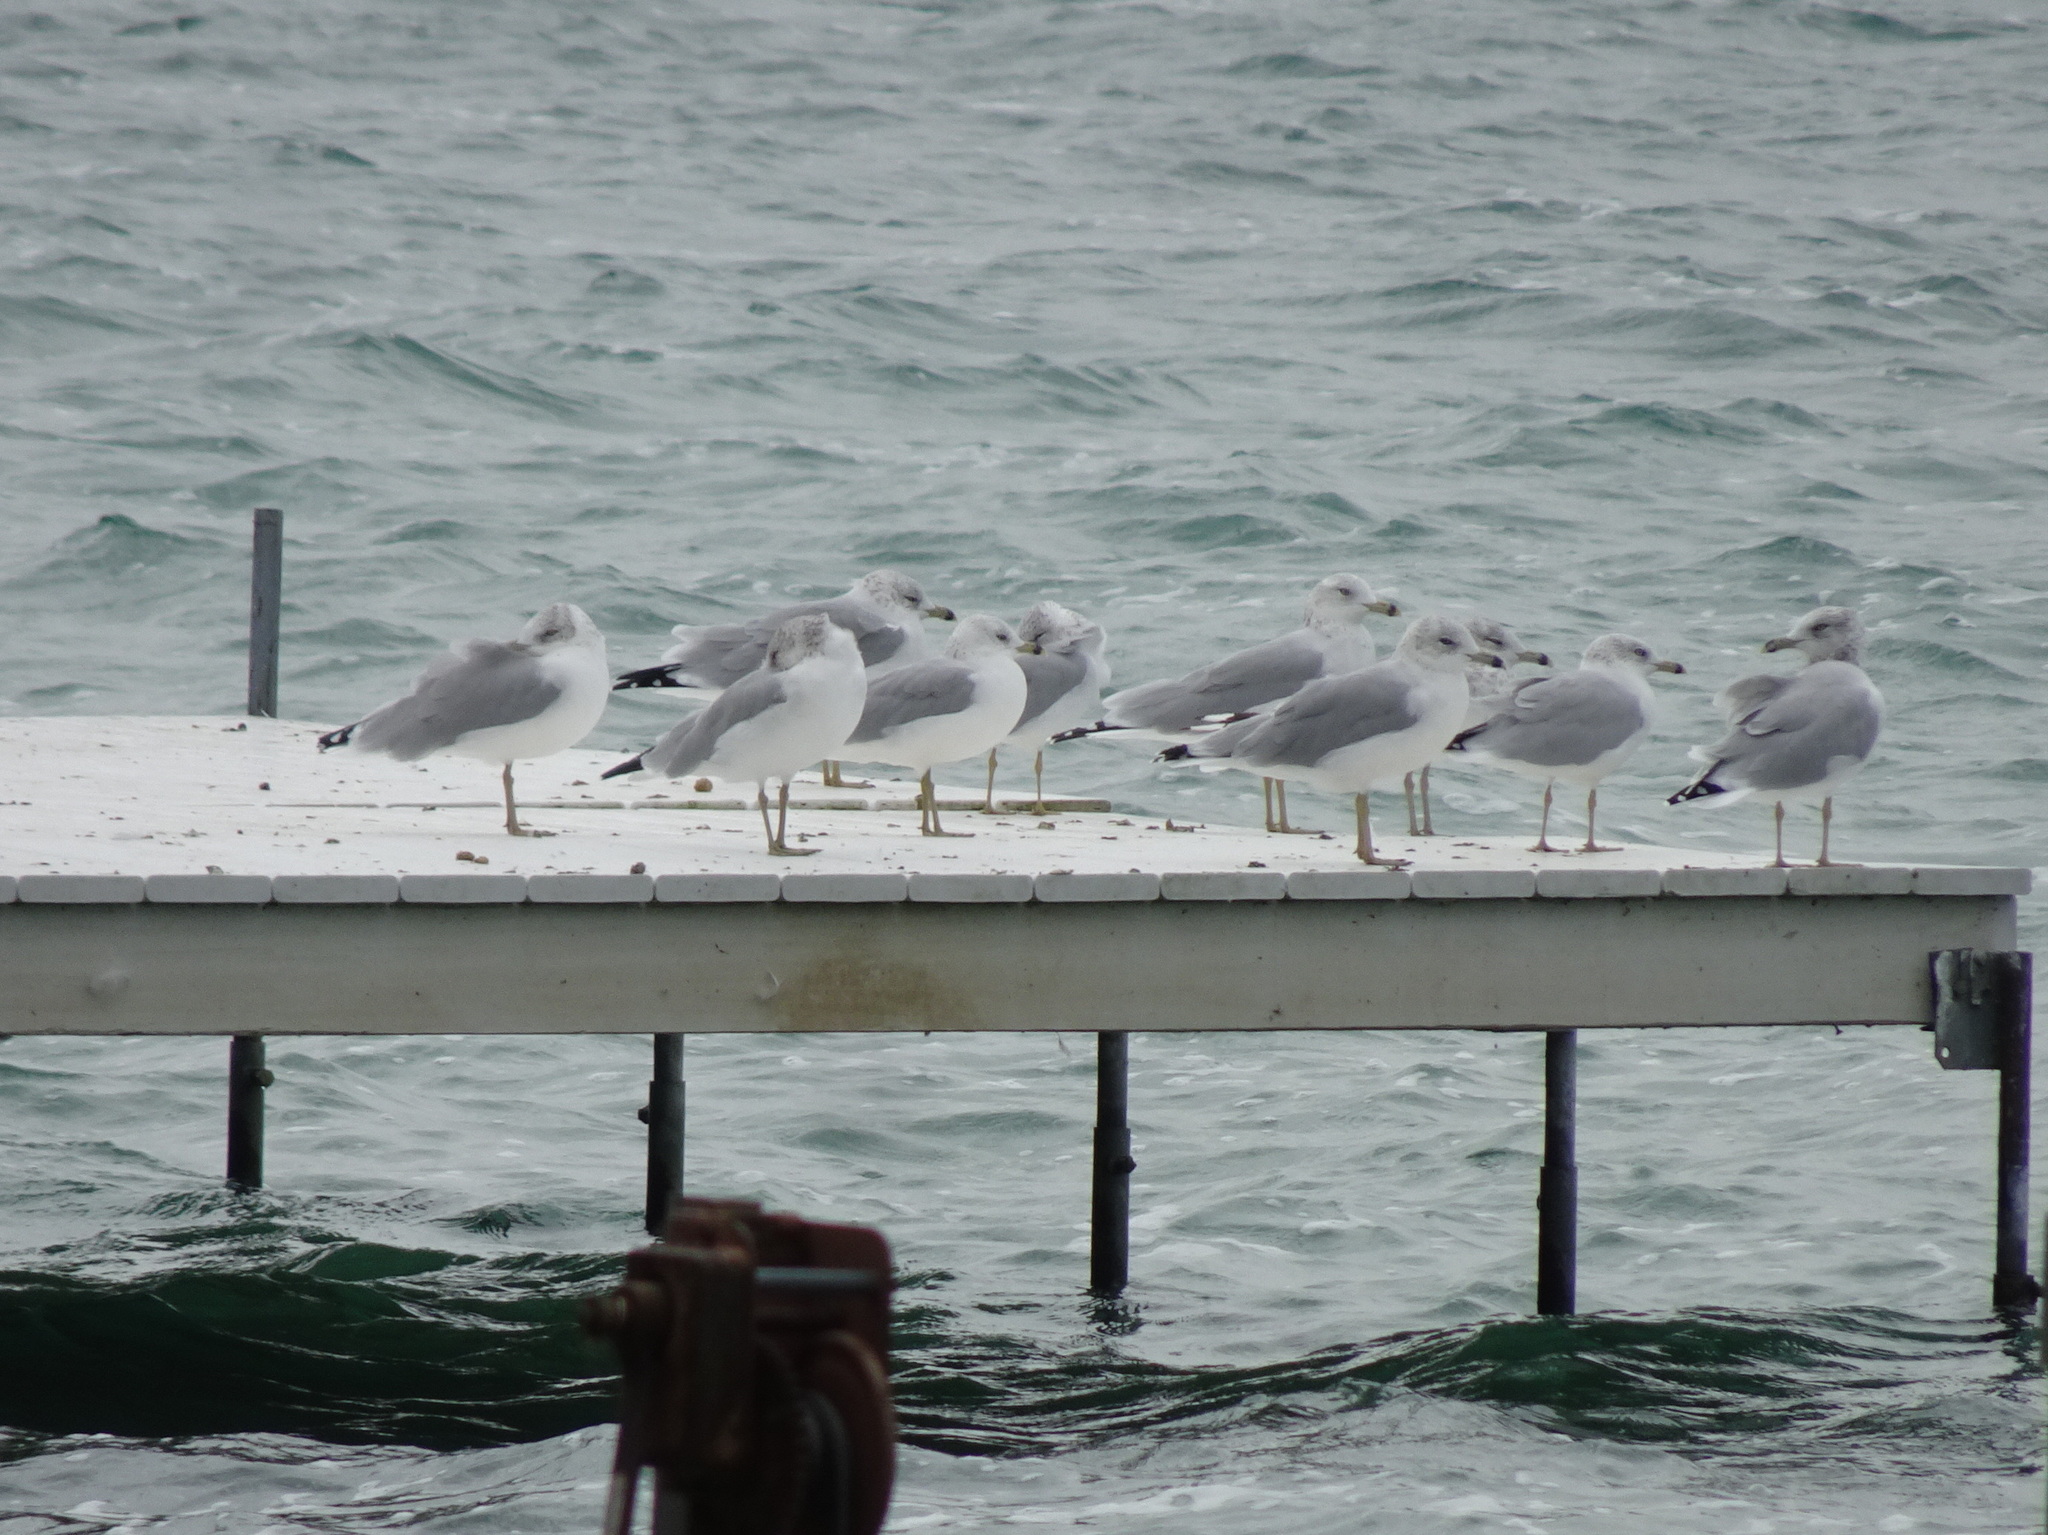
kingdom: Animalia
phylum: Chordata
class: Aves
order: Charadriiformes
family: Laridae
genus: Larus
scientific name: Larus delawarensis
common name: Ring-billed gull
